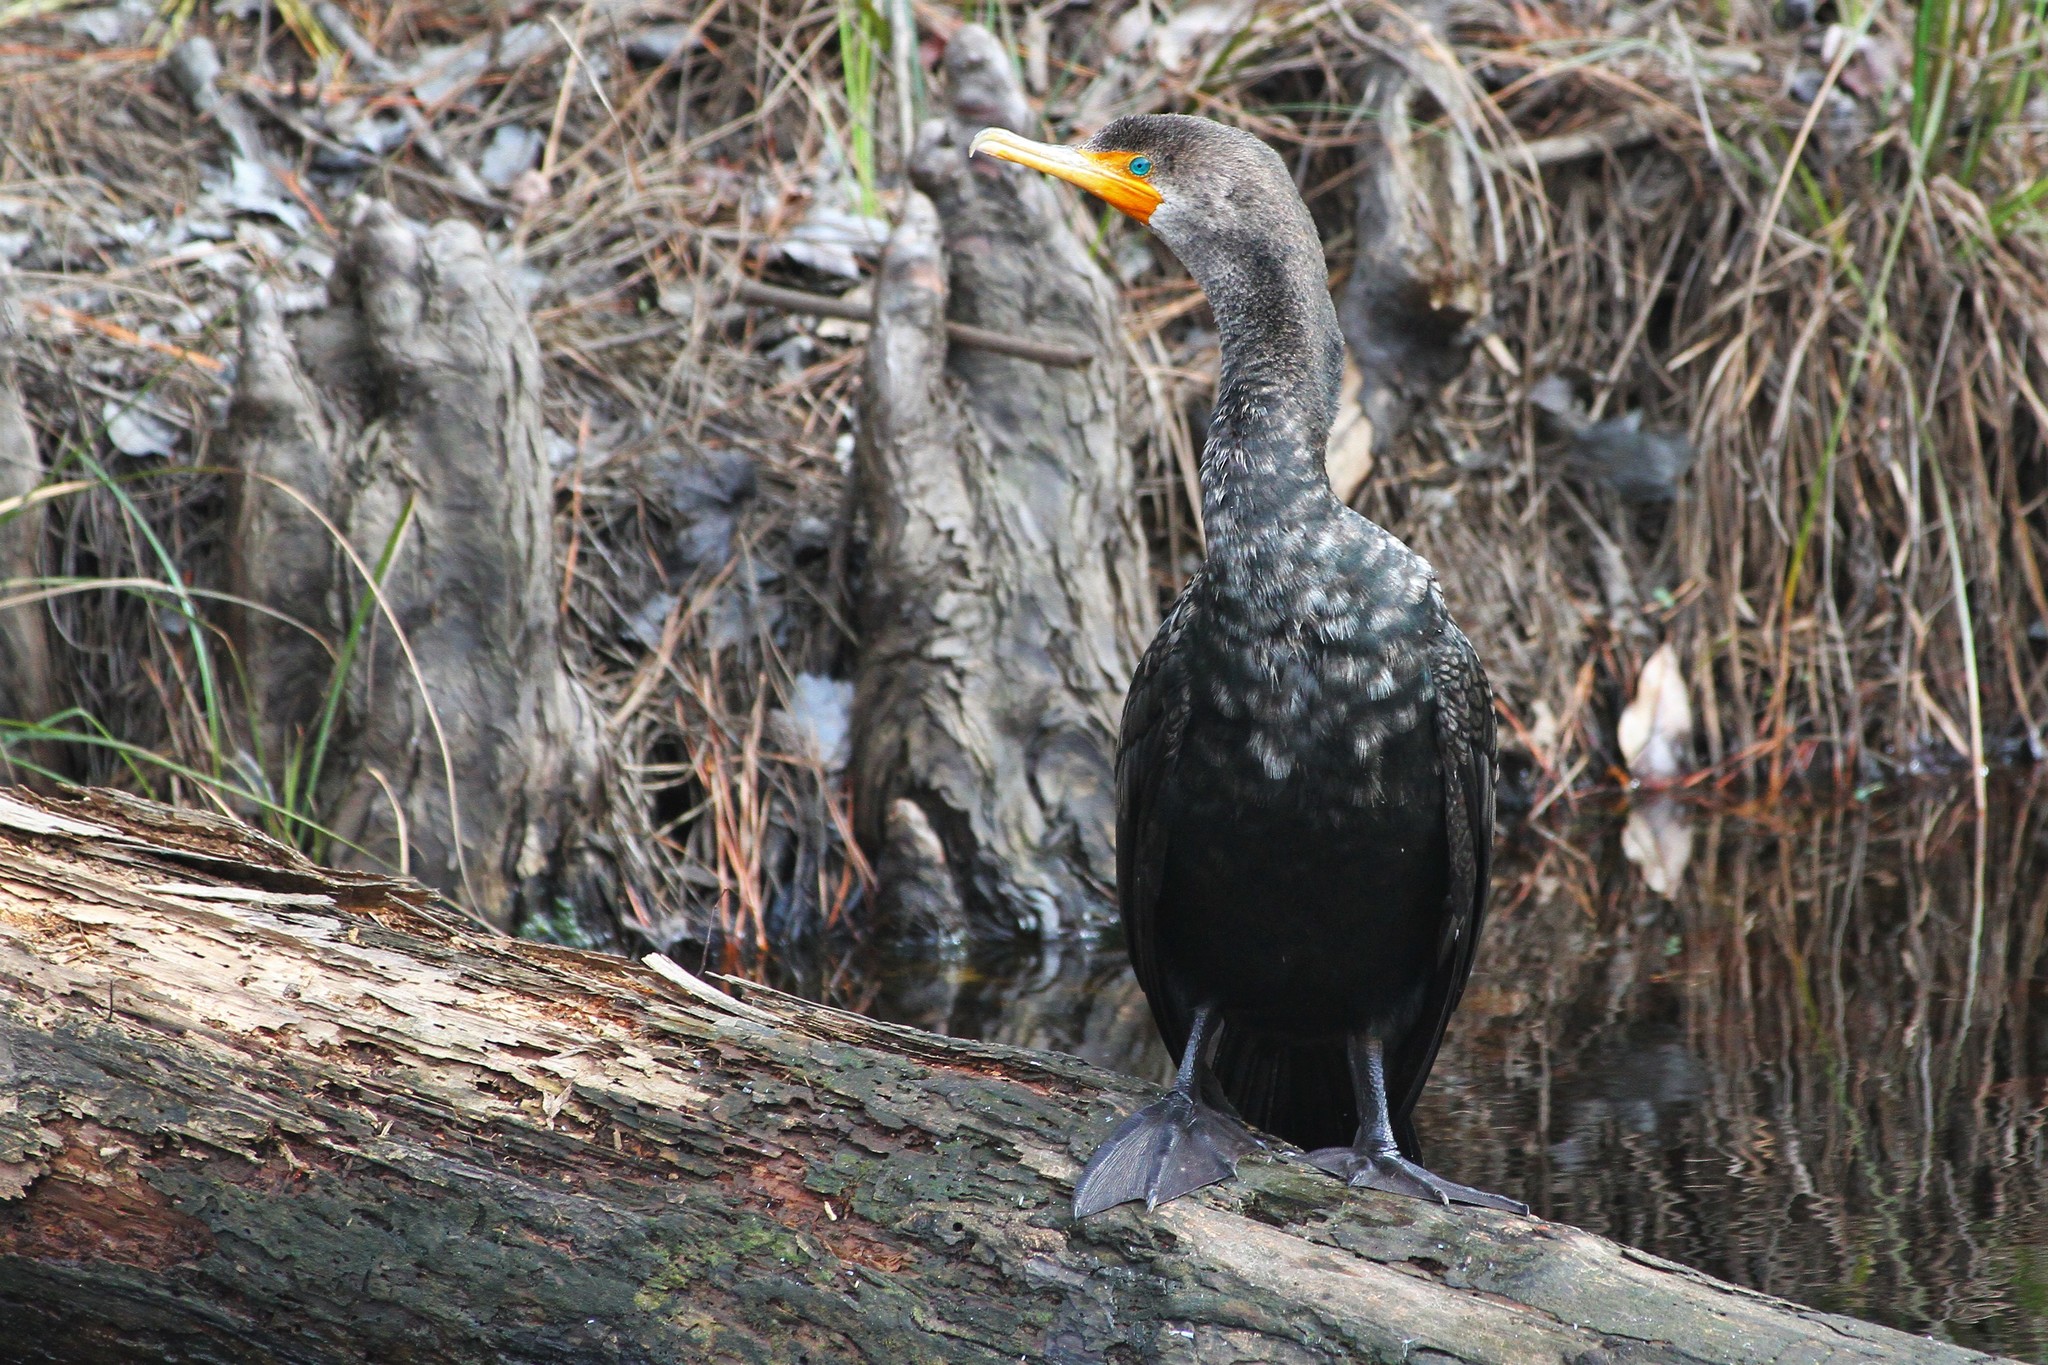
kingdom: Animalia
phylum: Chordata
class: Aves
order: Suliformes
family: Phalacrocoracidae
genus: Phalacrocorax
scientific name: Phalacrocorax auritus
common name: Double-crested cormorant
